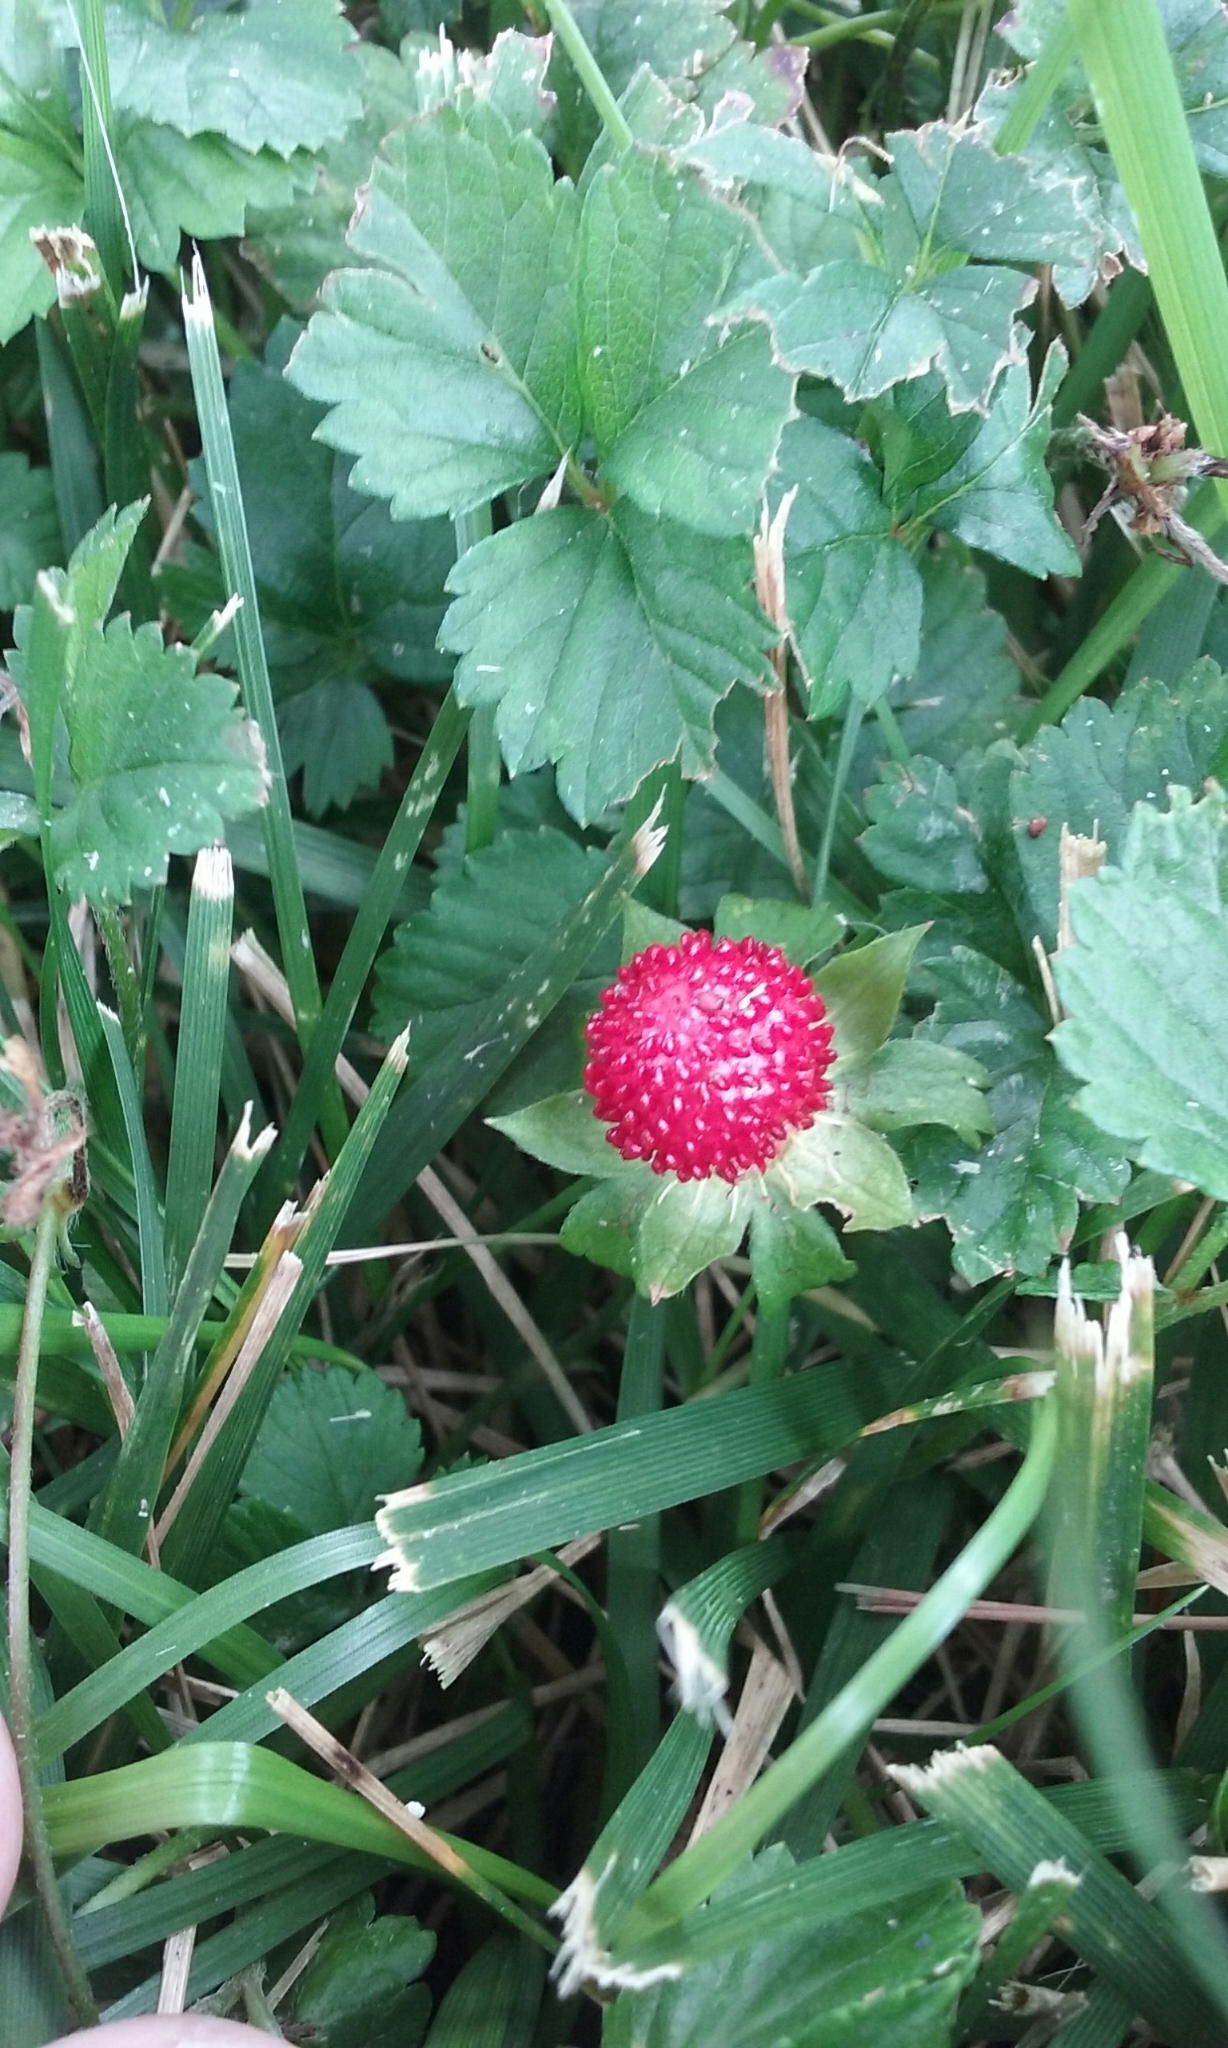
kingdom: Plantae
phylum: Tracheophyta
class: Magnoliopsida
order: Rosales
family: Rosaceae
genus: Potentilla
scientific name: Potentilla indica
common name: Yellow-flowered strawberry
